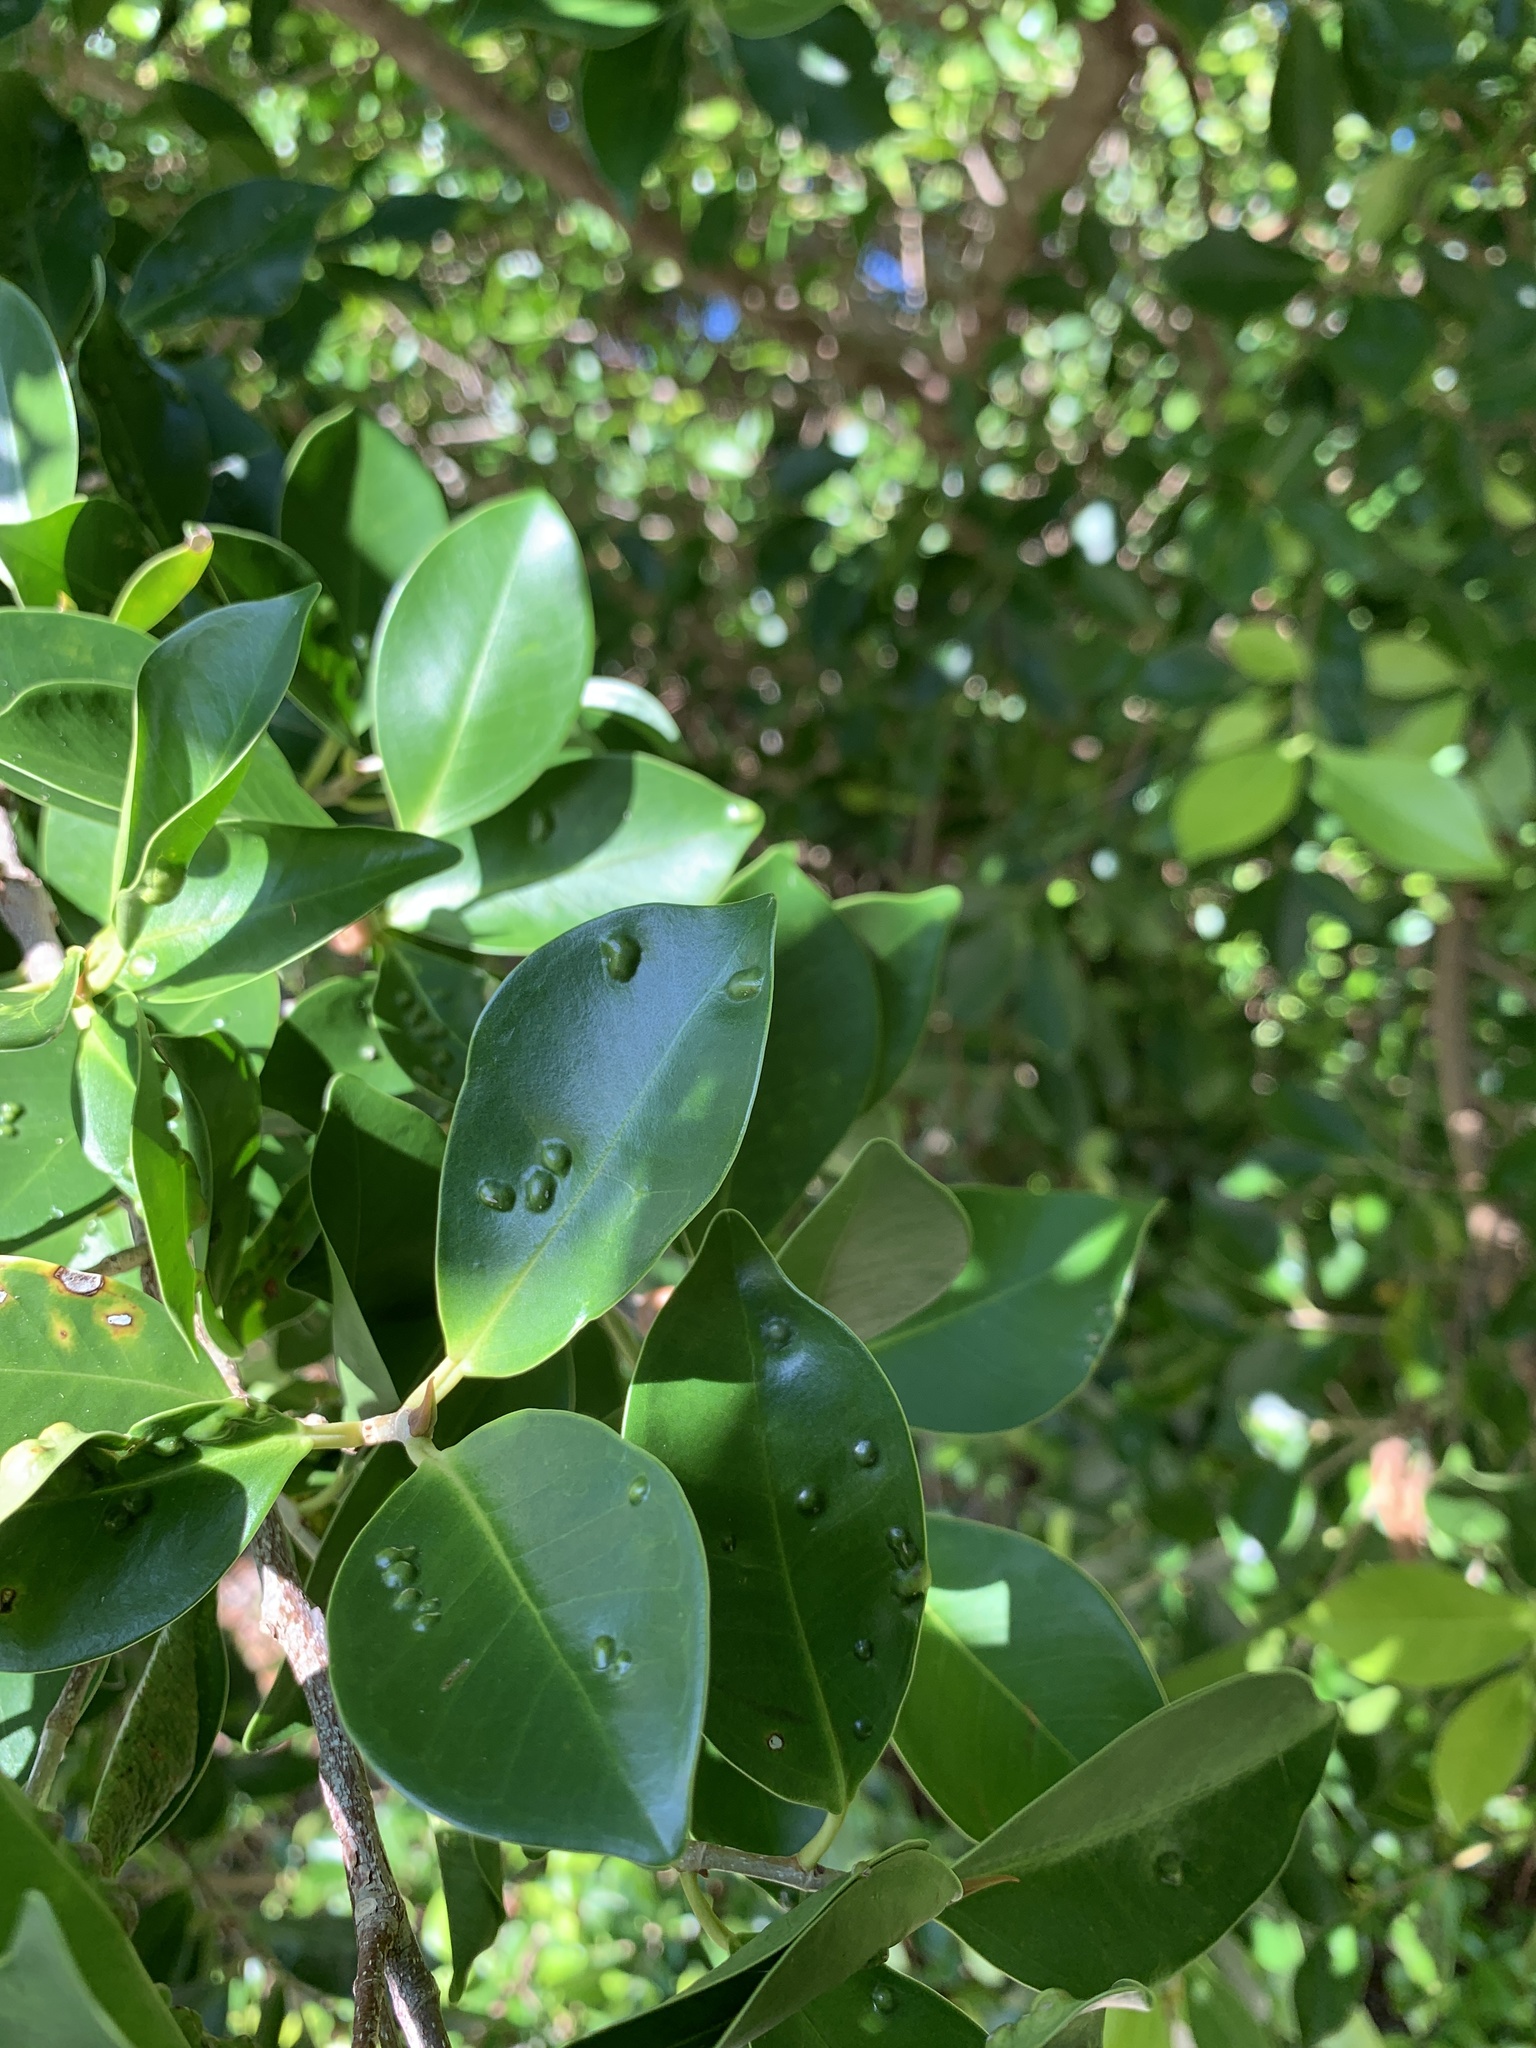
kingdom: Plantae
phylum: Tracheophyta
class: Magnoliopsida
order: Rosales
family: Moraceae
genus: Ficus
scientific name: Ficus microcarpa
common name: Chinese banyan
